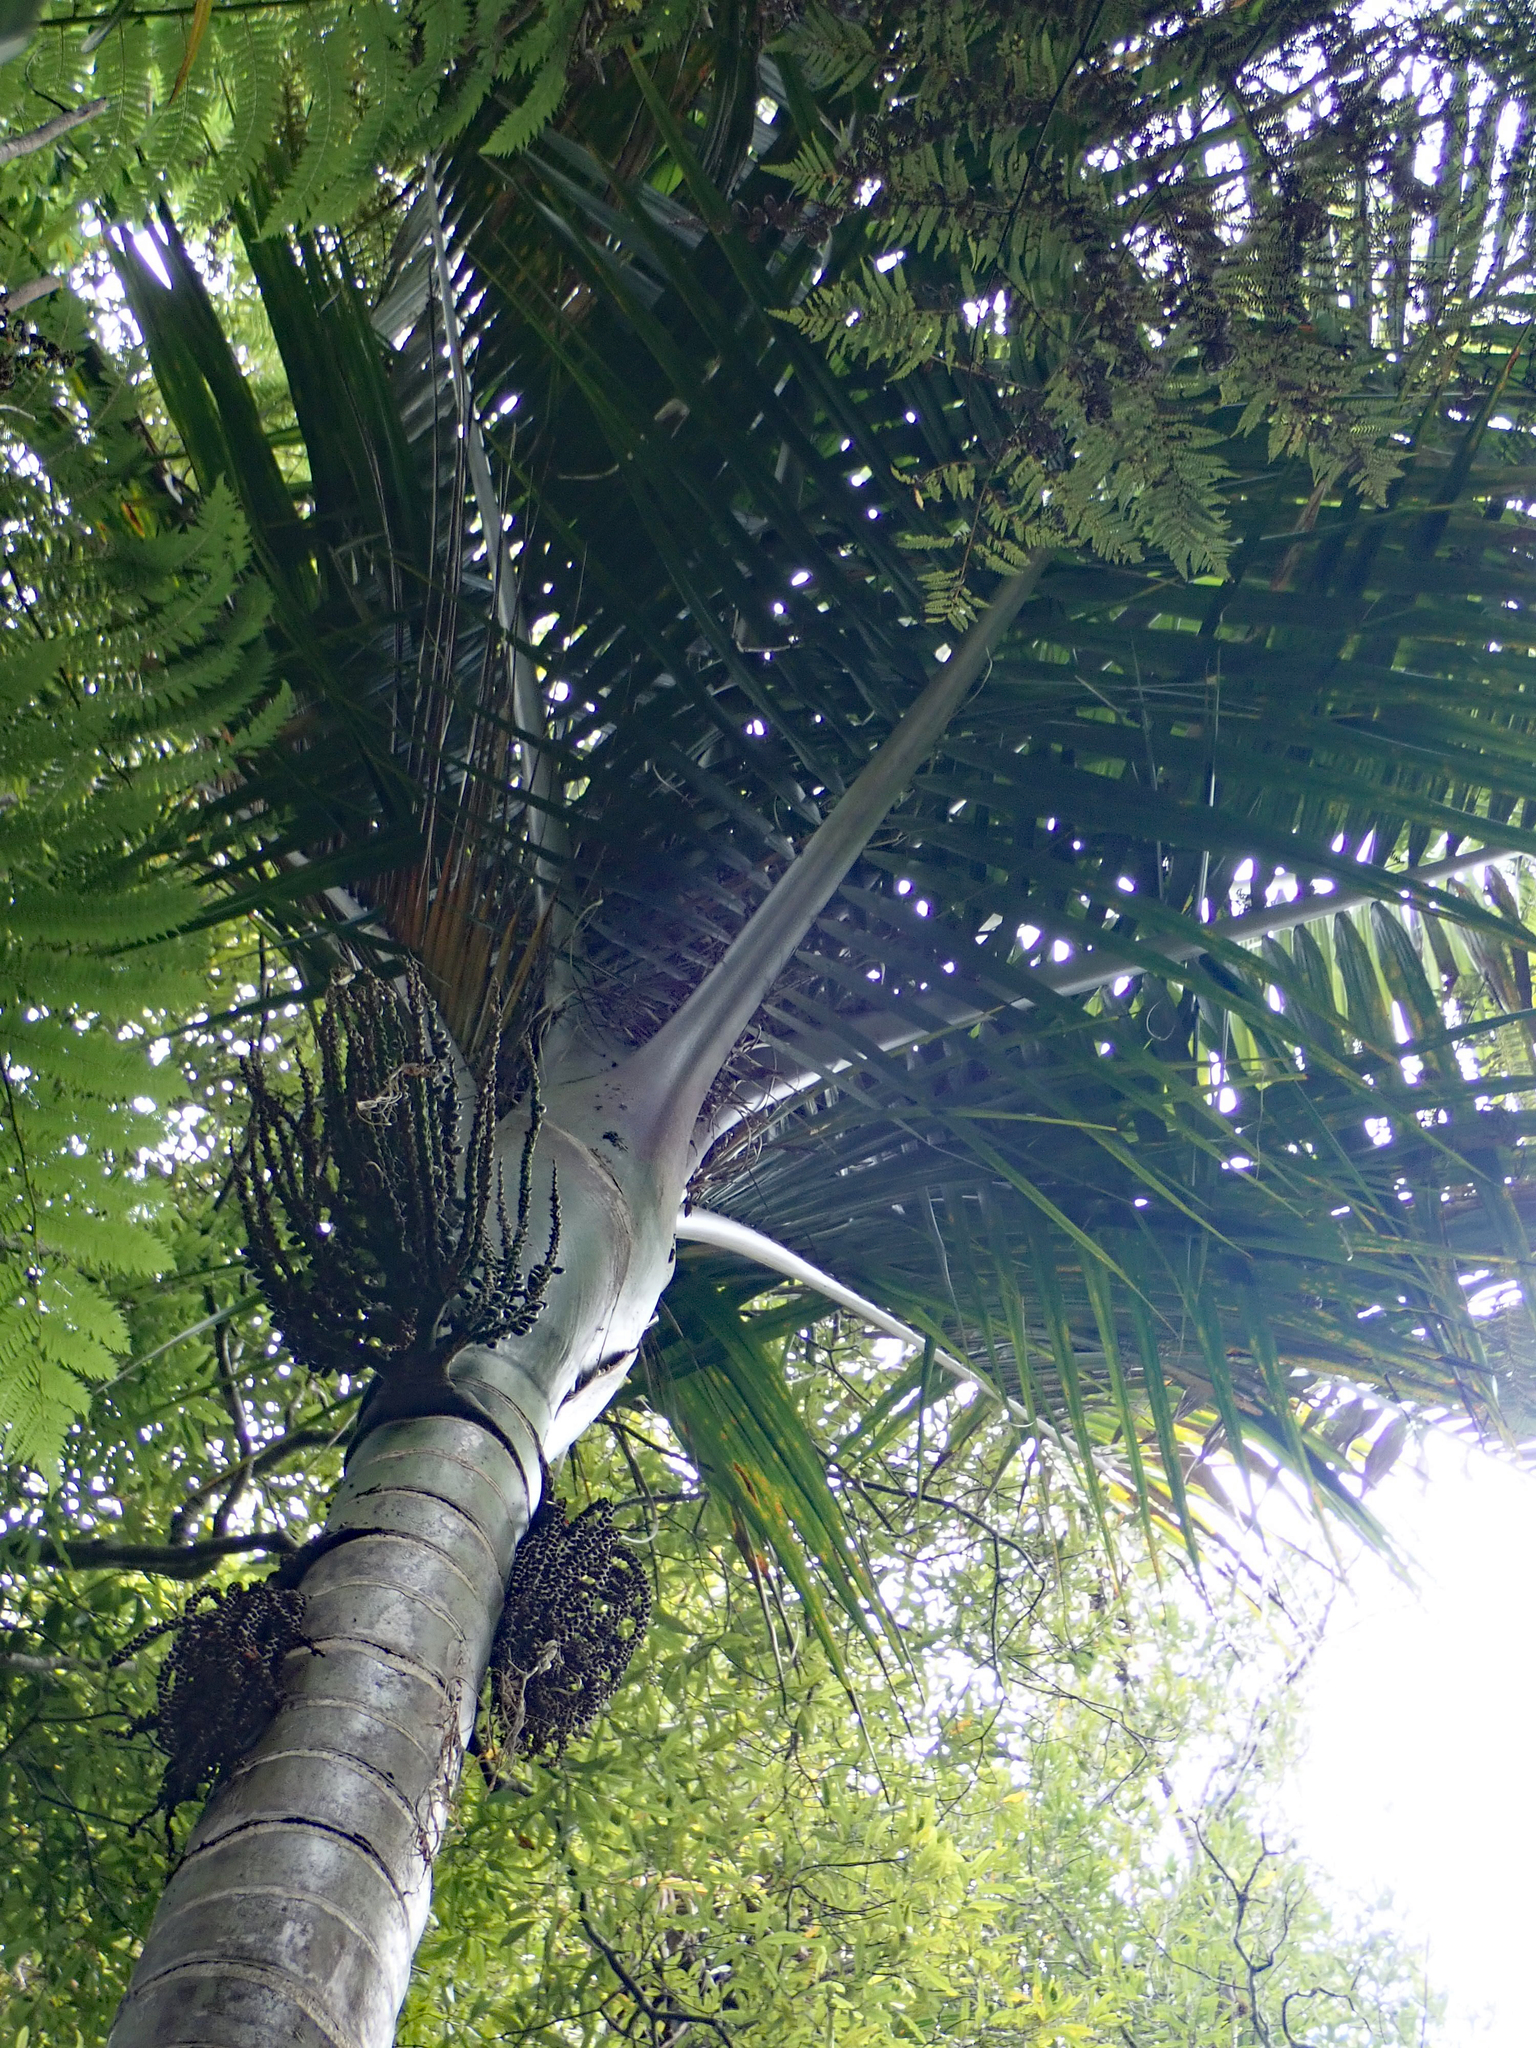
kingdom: Plantae
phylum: Tracheophyta
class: Liliopsida
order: Arecales
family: Arecaceae
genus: Rhopalostylis
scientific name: Rhopalostylis sapida
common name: Feather-duster palm
